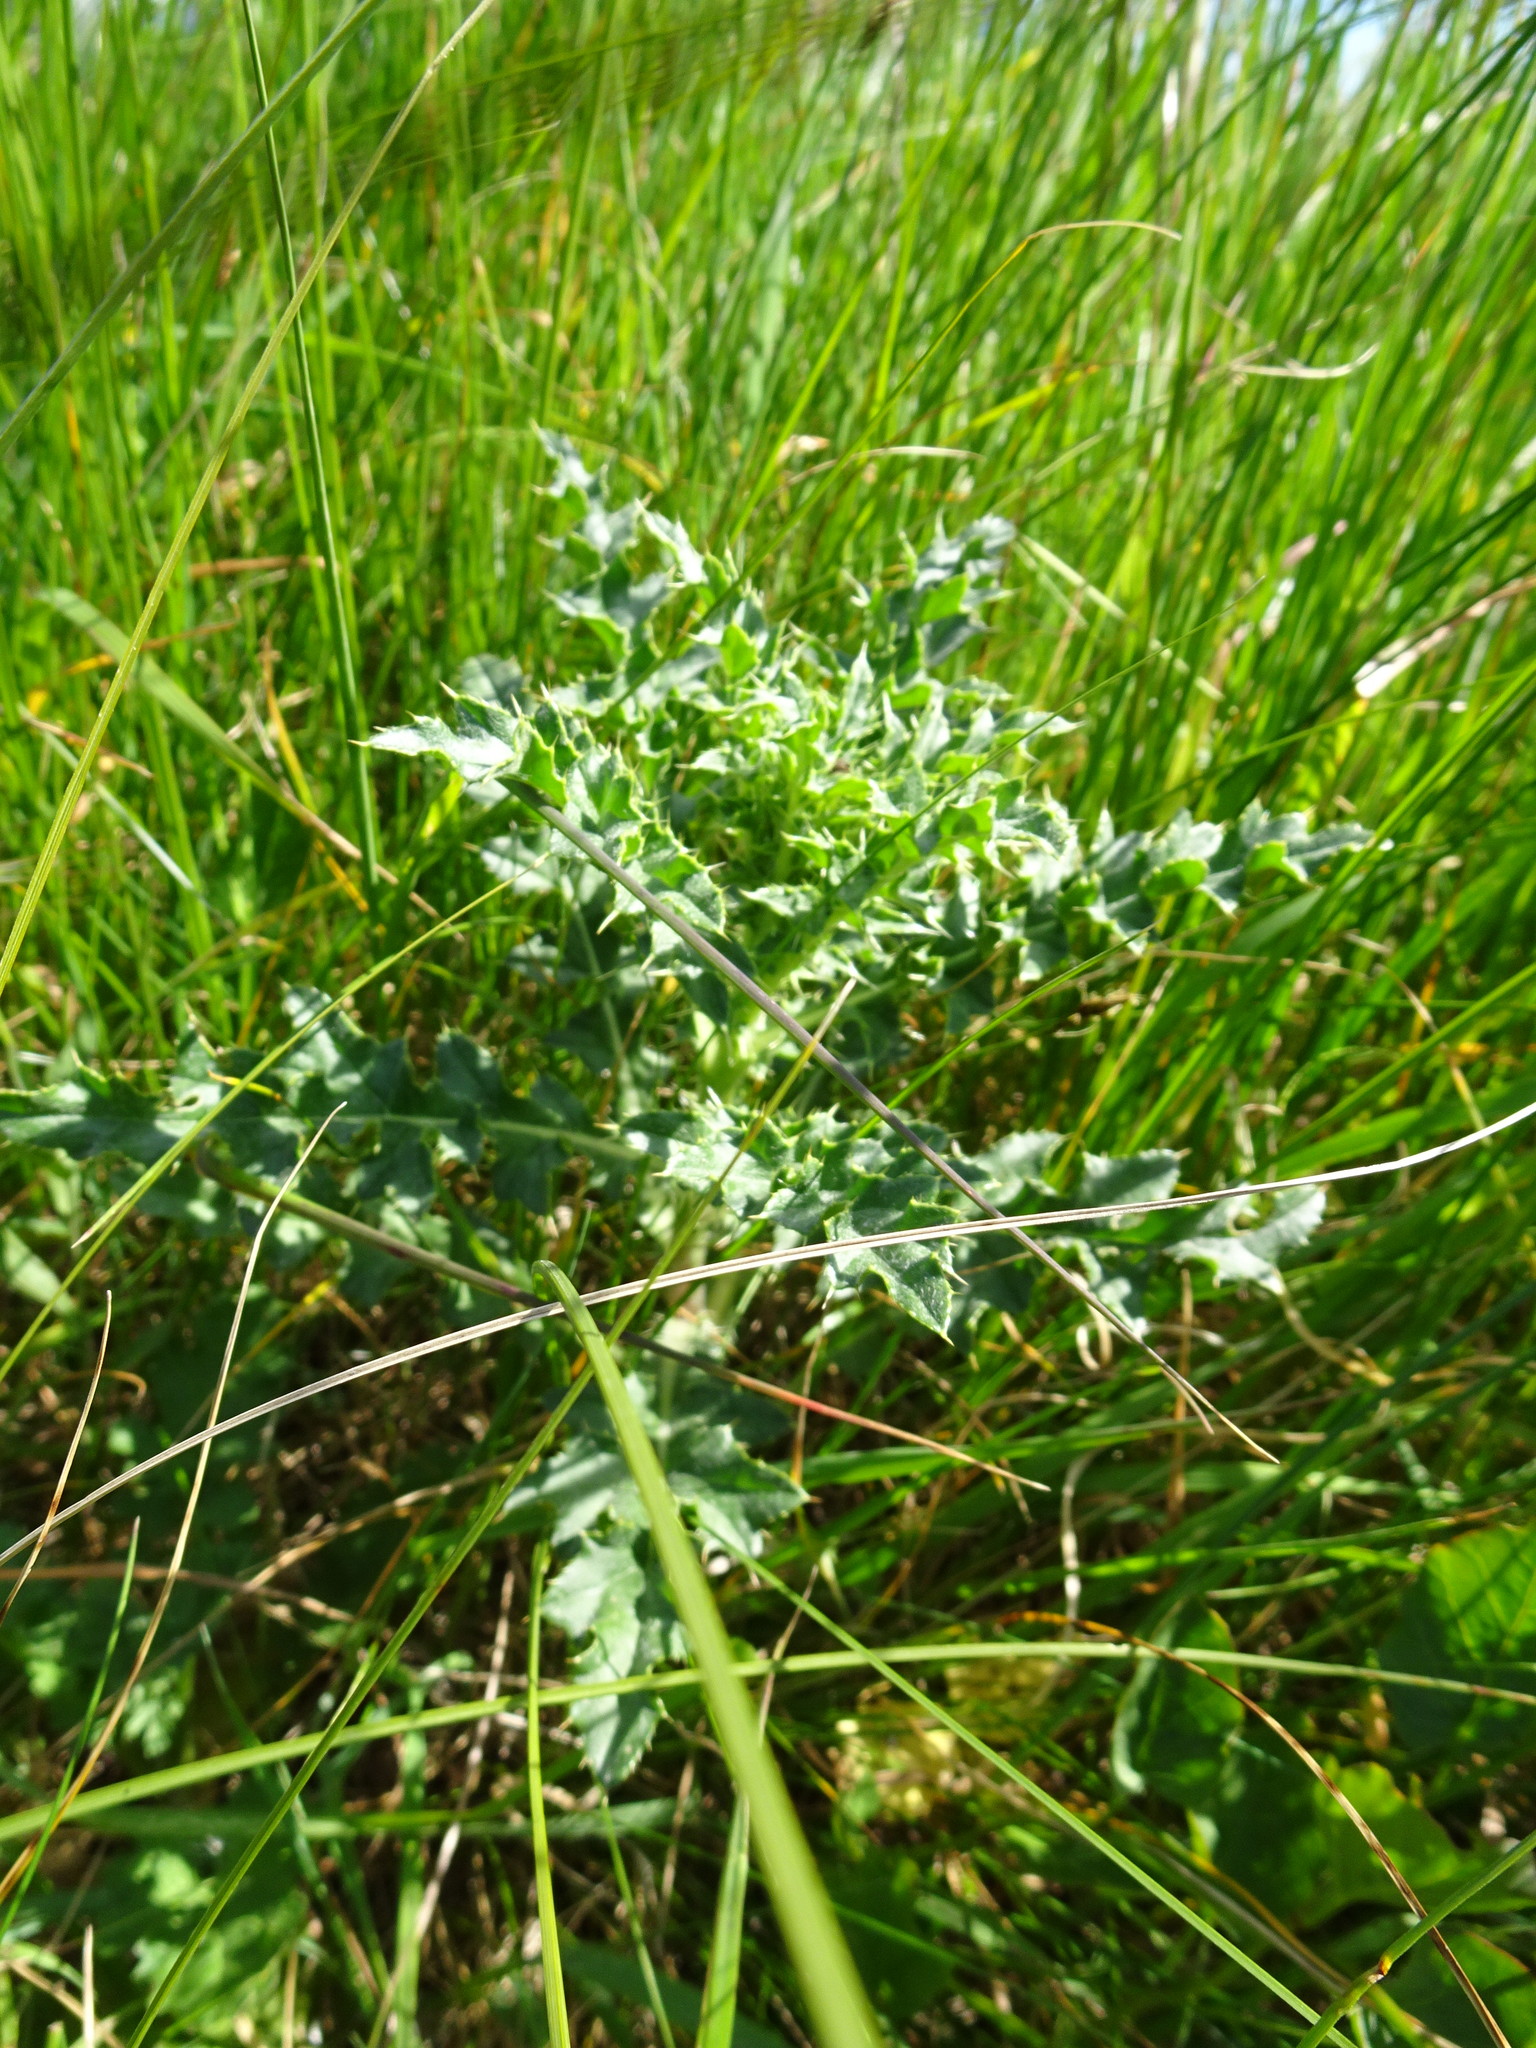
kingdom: Plantae
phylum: Tracheophyta
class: Magnoliopsida
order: Asterales
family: Asteraceae
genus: Cirsium
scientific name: Cirsium arvense
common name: Creeping thistle
